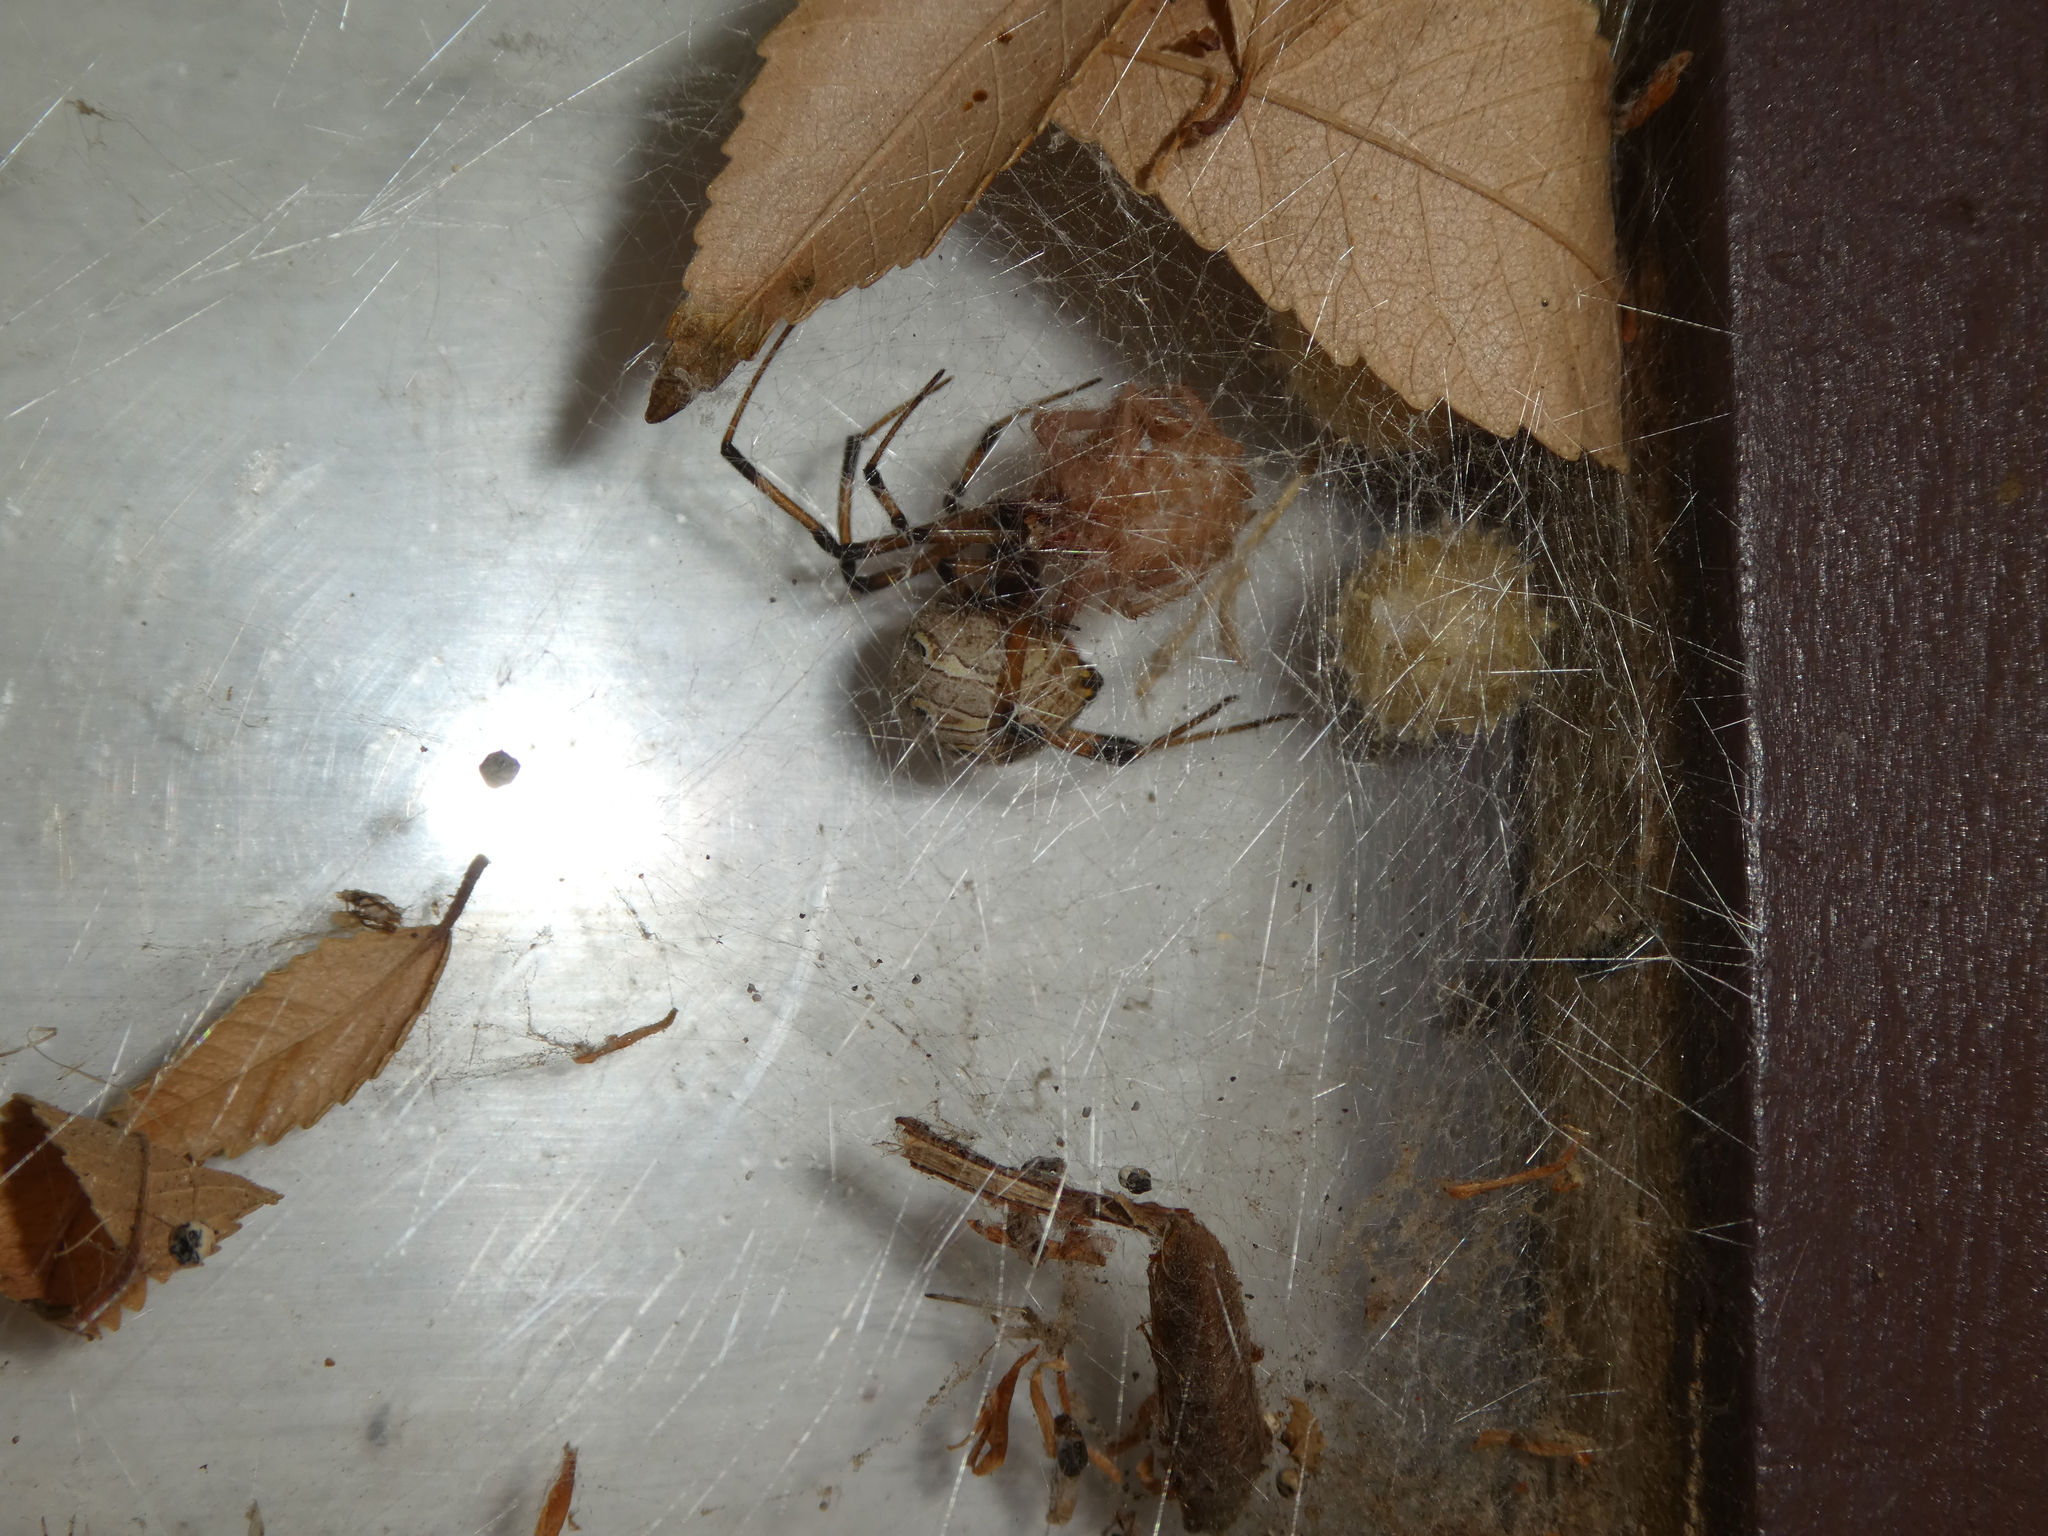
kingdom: Animalia
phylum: Arthropoda
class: Arachnida
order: Araneae
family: Theridiidae
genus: Latrodectus
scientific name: Latrodectus geometricus
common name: Brown widow spider
